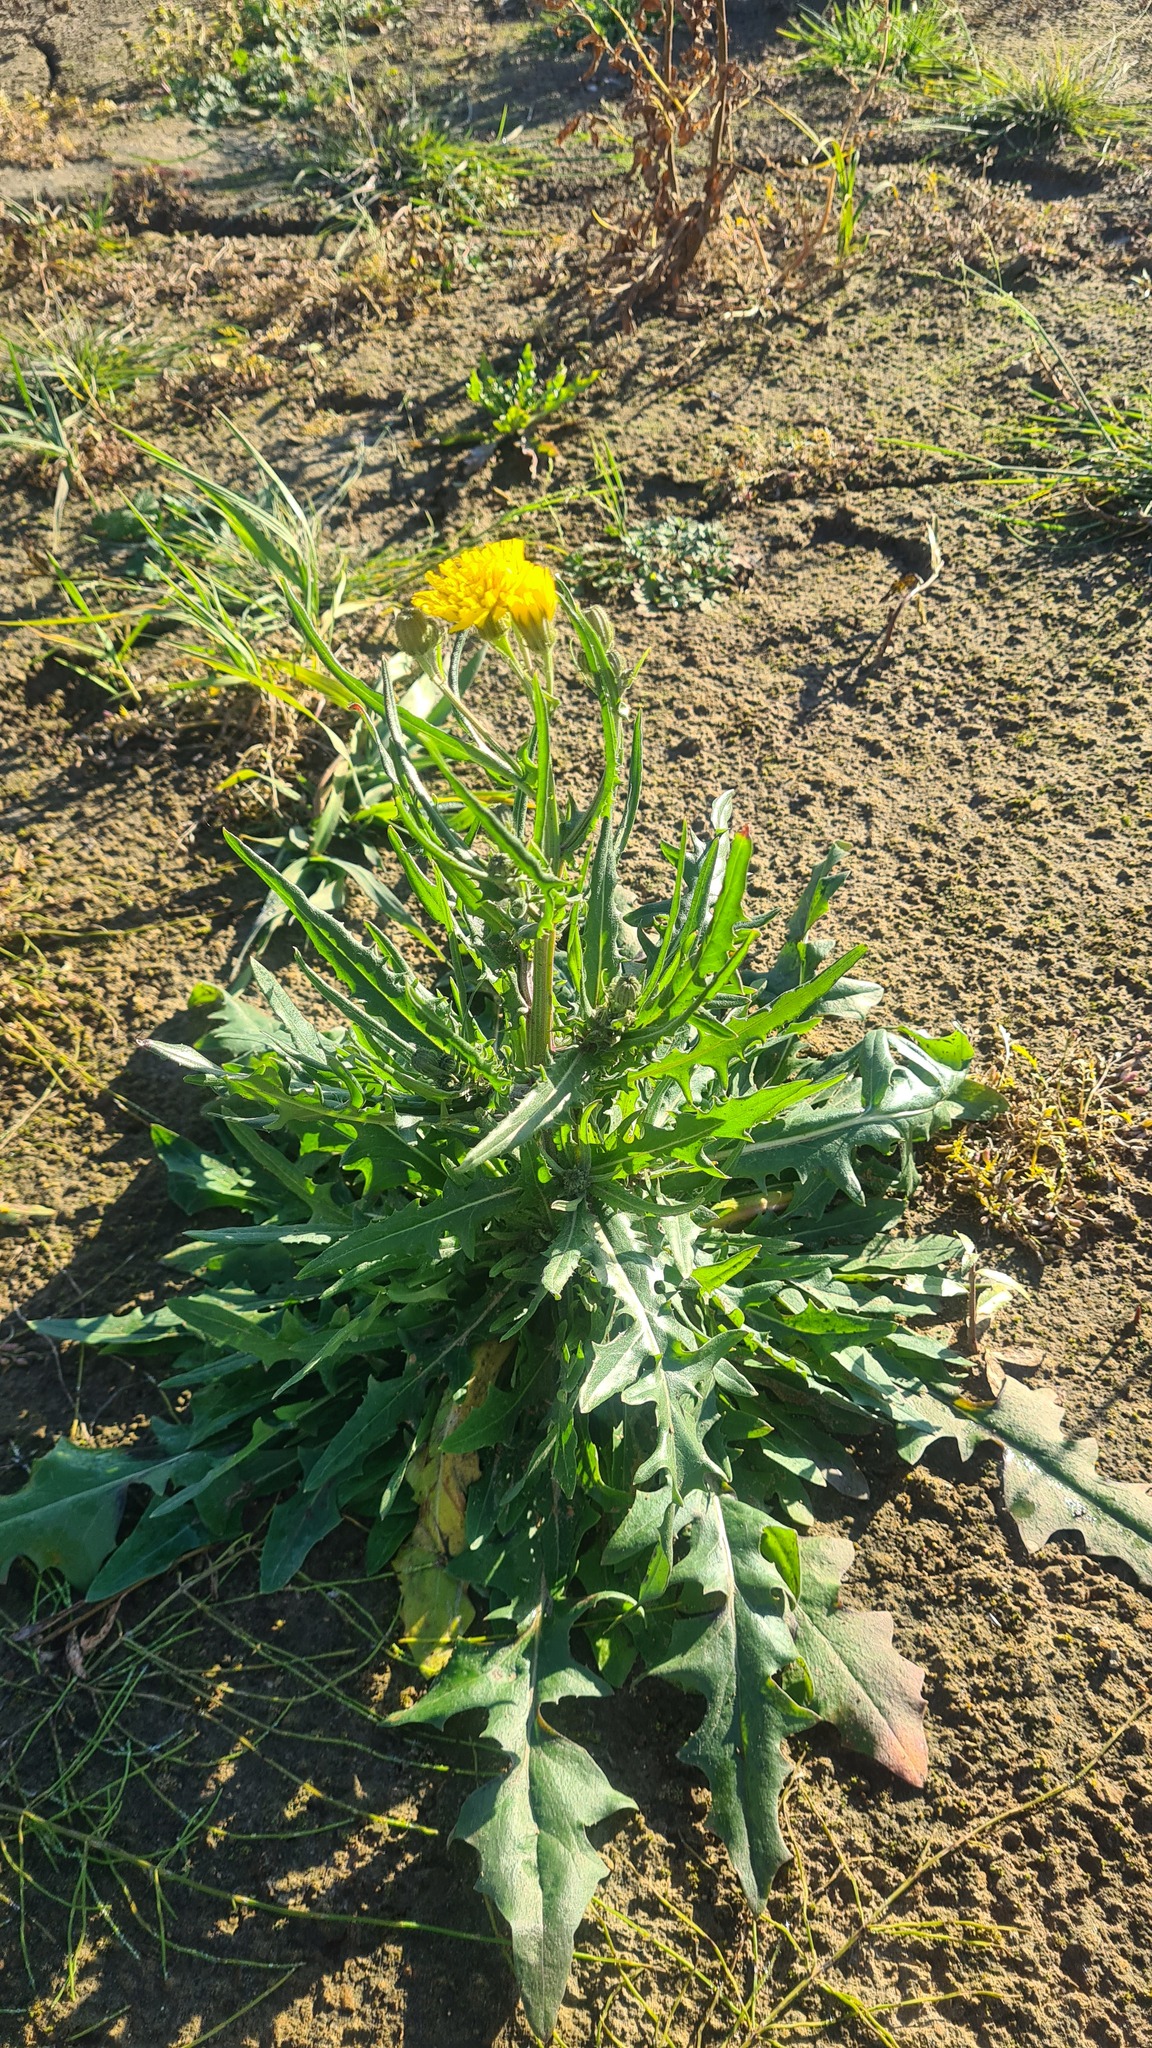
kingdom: Plantae
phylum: Tracheophyta
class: Magnoliopsida
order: Asterales
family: Asteraceae
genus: Sonchus
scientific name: Sonchus arvensis
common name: Perennial sow-thistle
